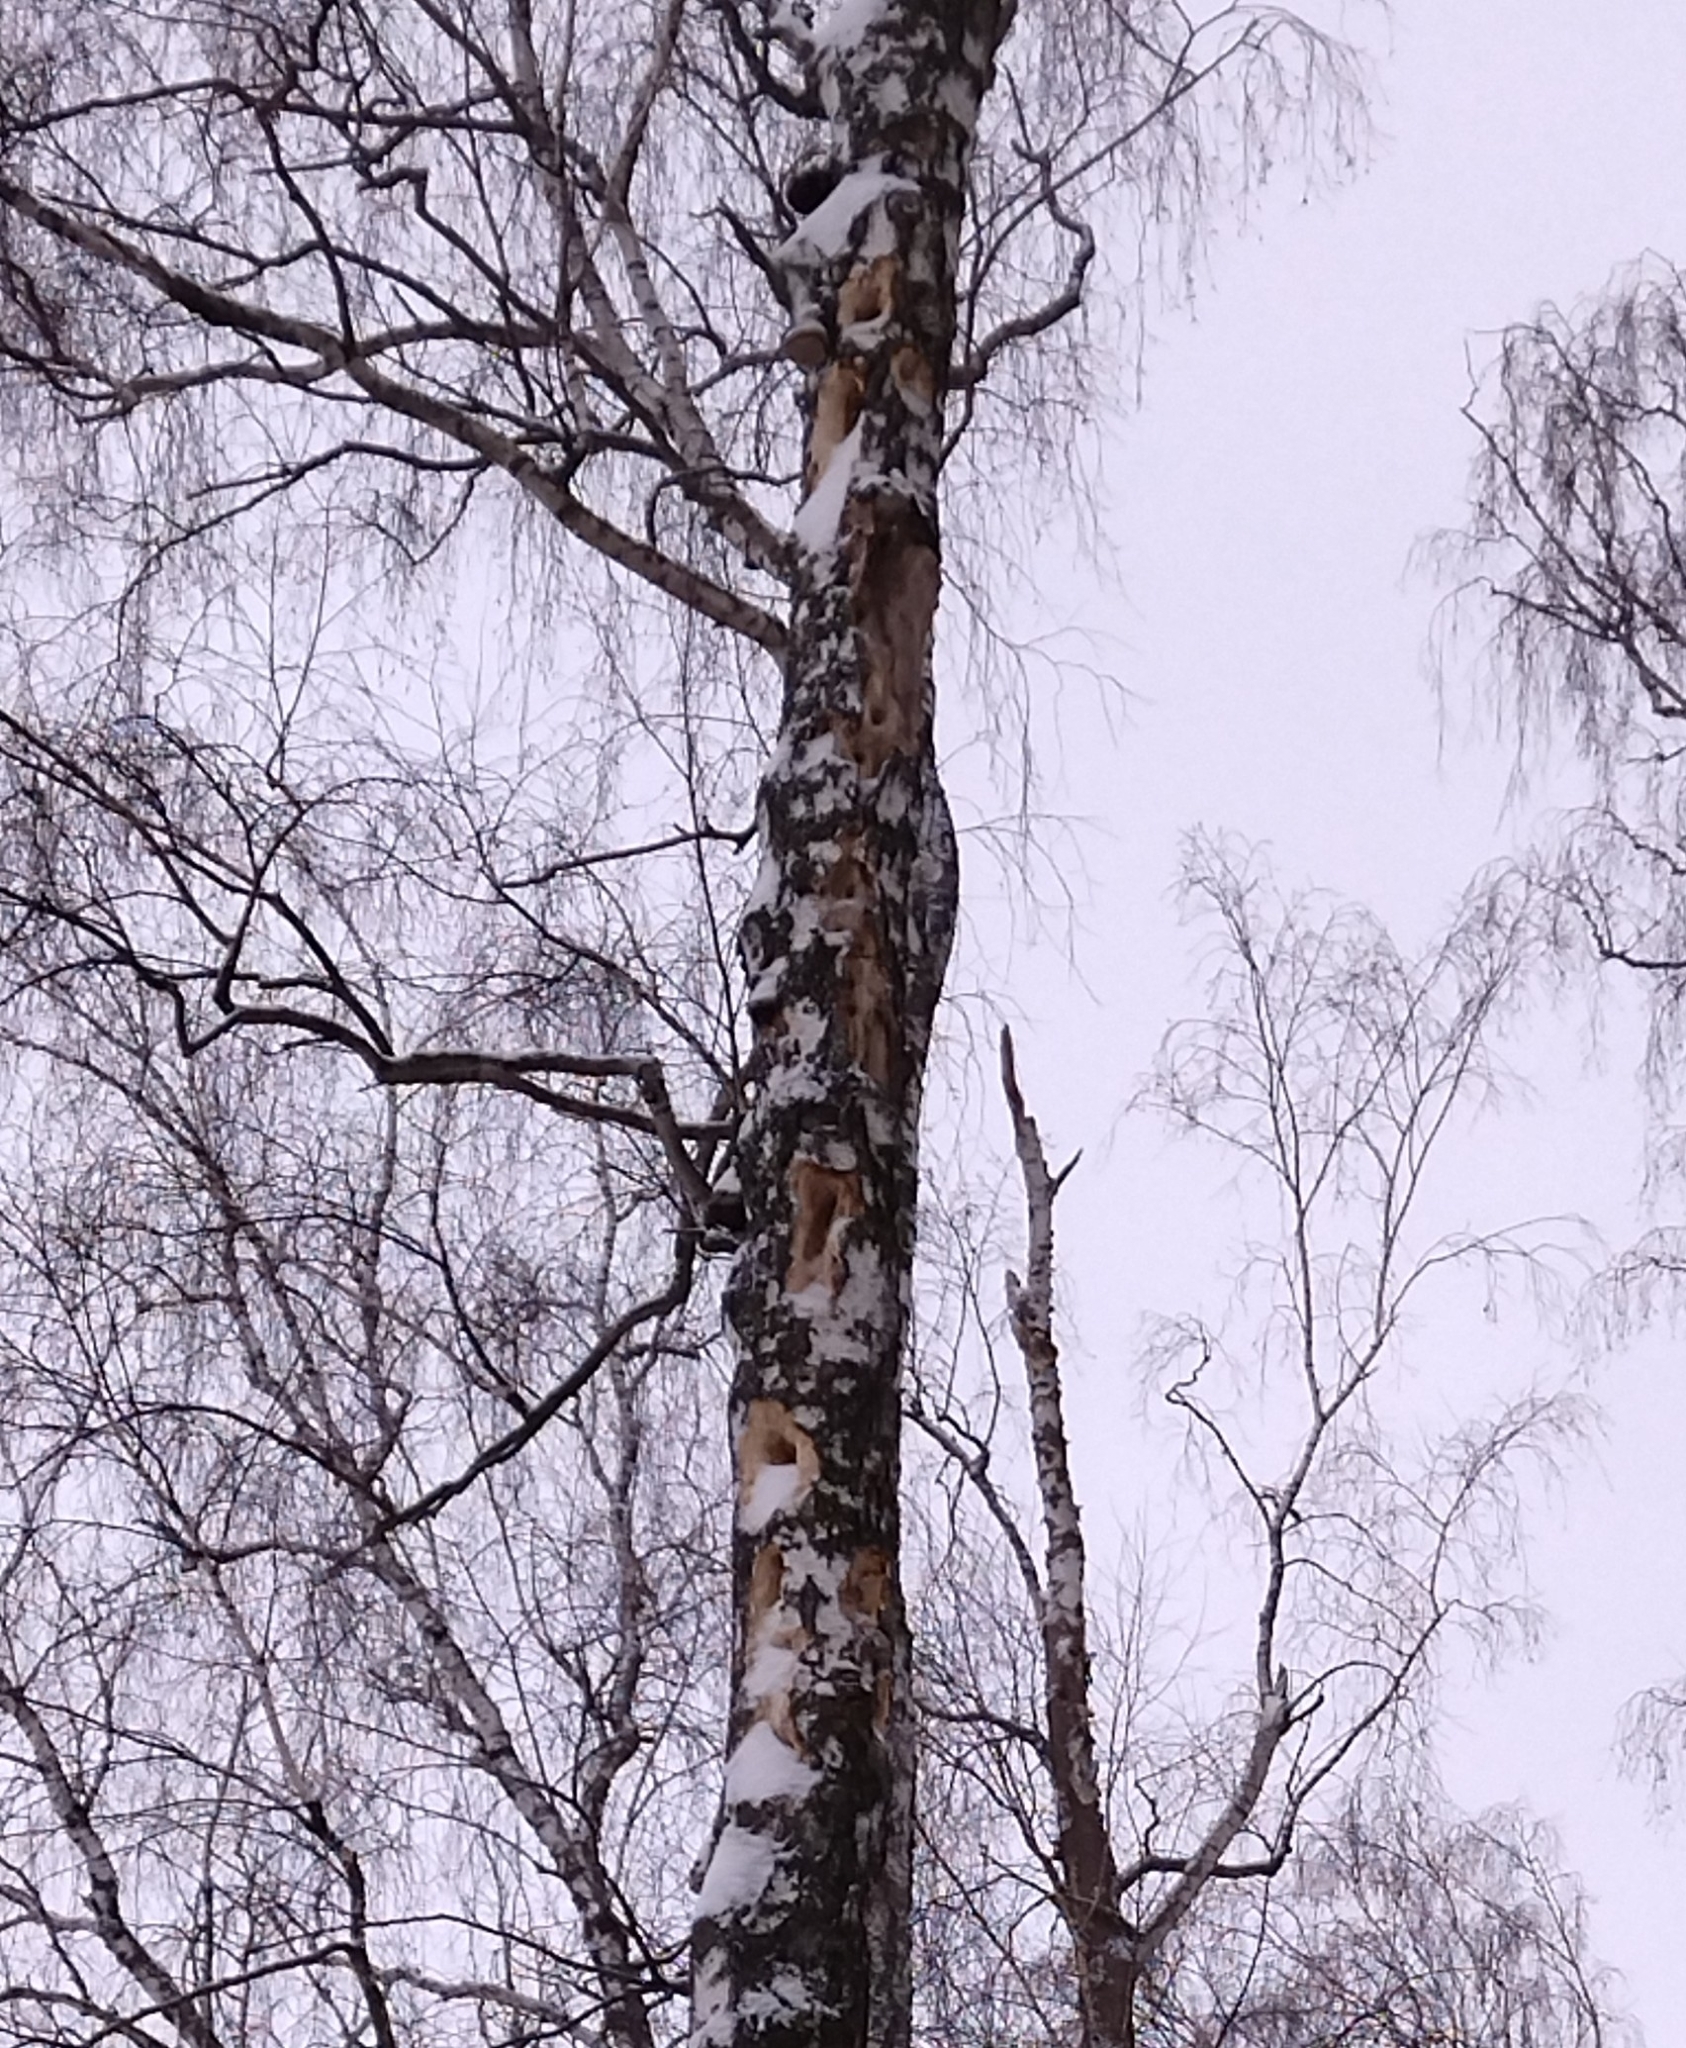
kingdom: Animalia
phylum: Chordata
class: Aves
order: Piciformes
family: Picidae
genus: Dendrocopos
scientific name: Dendrocopos major
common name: Great spotted woodpecker
